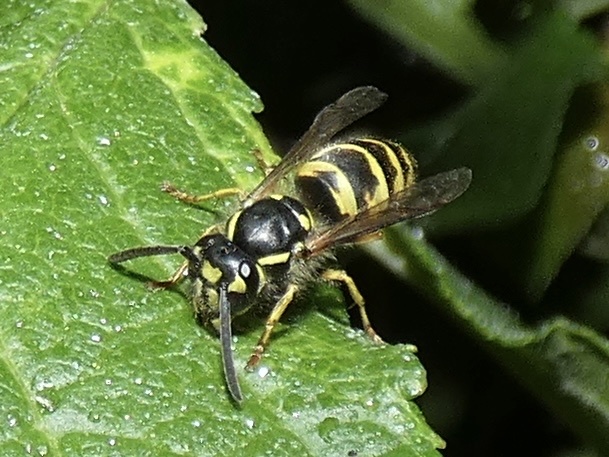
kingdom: Animalia
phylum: Arthropoda
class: Insecta
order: Hymenoptera
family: Vespidae
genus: Vespula
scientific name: Vespula vulgaris
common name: Common wasp
